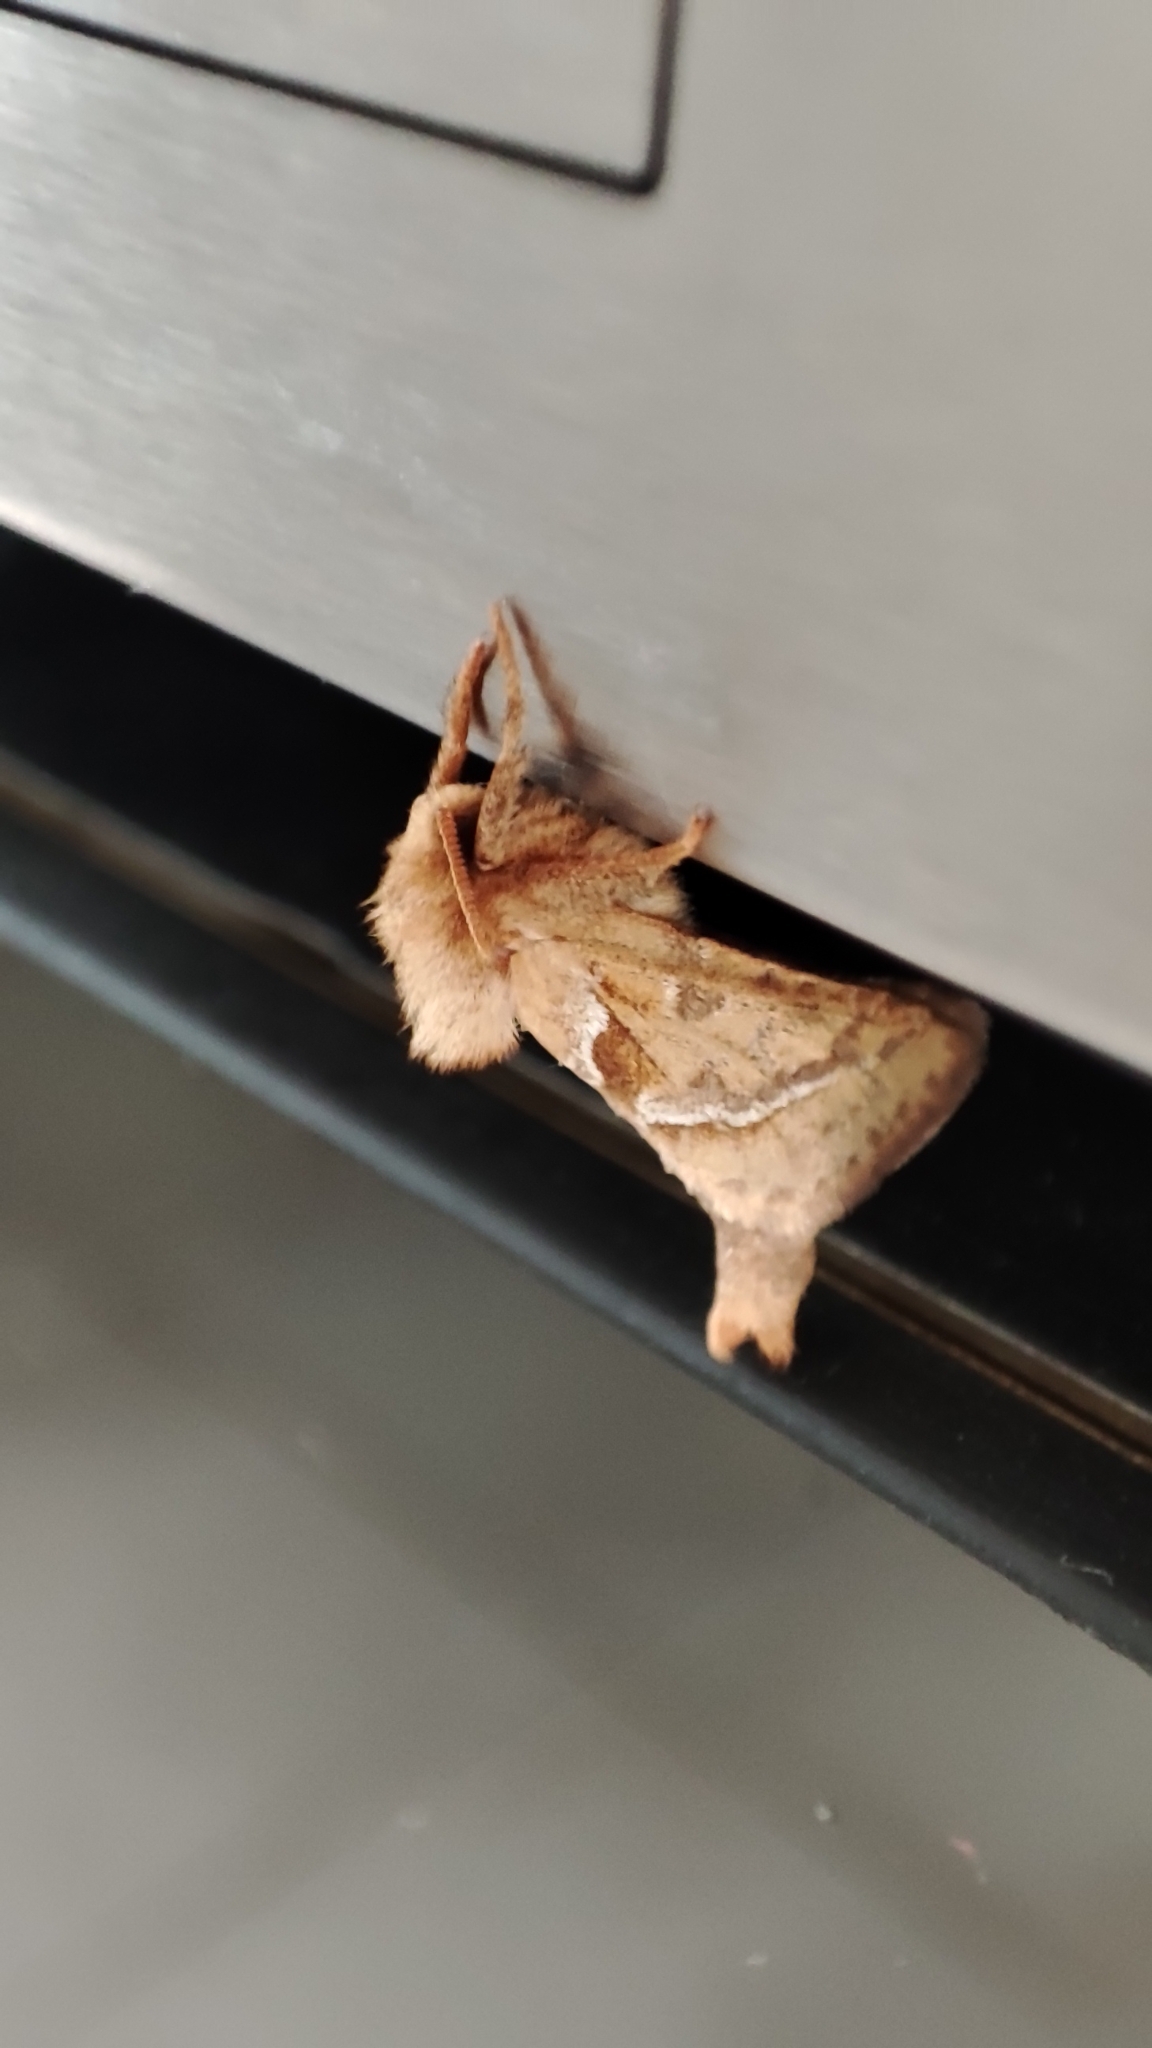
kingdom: Animalia
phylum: Arthropoda
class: Insecta
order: Lepidoptera
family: Hepialidae
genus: Triodia
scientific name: Triodia sylvina
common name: Orange swift
